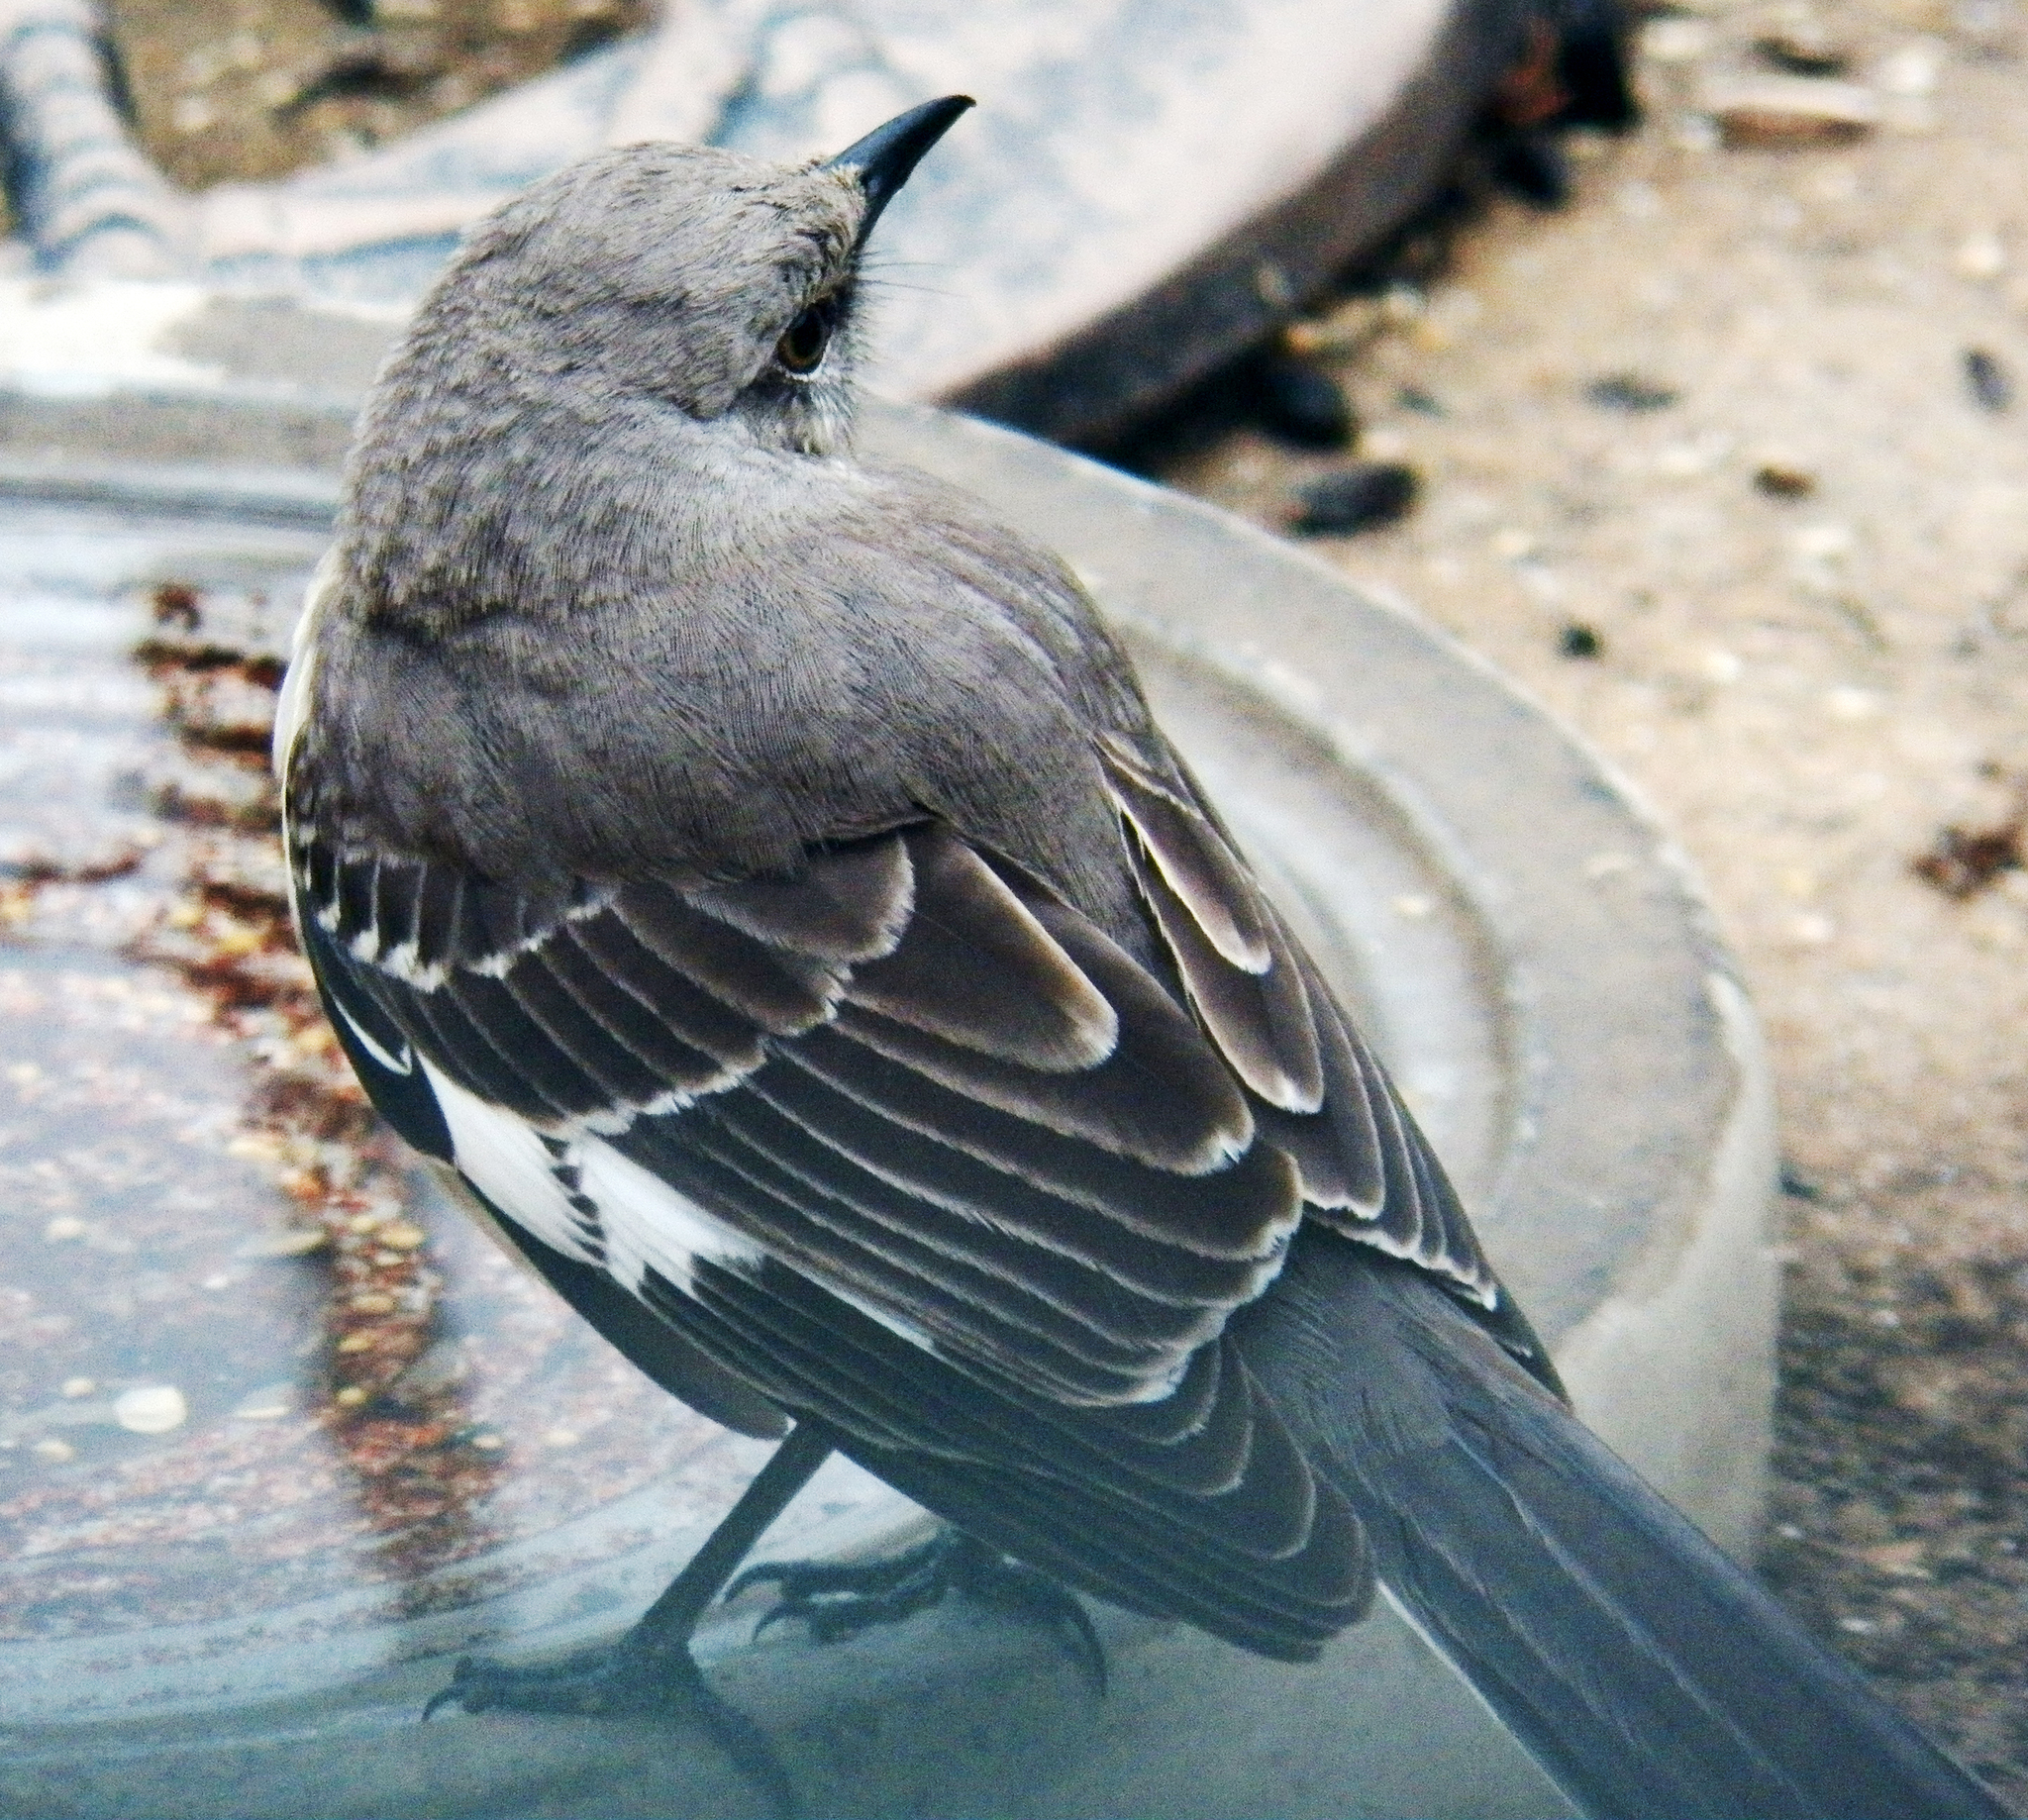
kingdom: Animalia
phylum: Chordata
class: Aves
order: Passeriformes
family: Mimidae
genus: Mimus
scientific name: Mimus polyglottos
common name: Northern mockingbird
